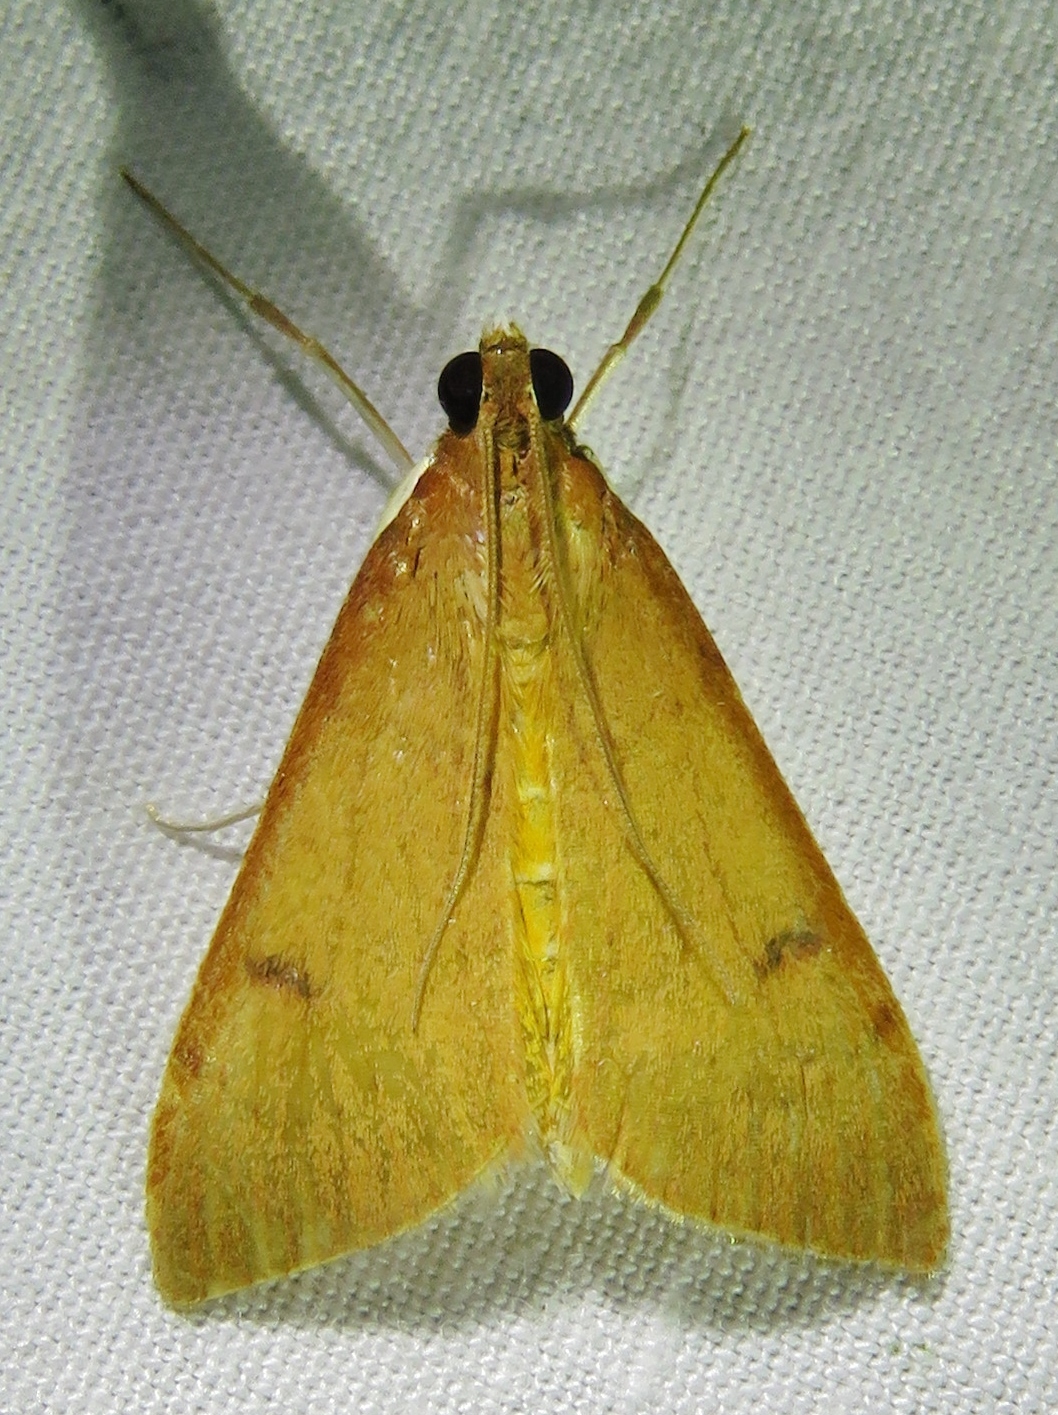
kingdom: Animalia
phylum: Arthropoda
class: Insecta
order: Lepidoptera
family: Crambidae
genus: Uresiphita
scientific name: Uresiphita reversalis
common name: Genista broom moth
